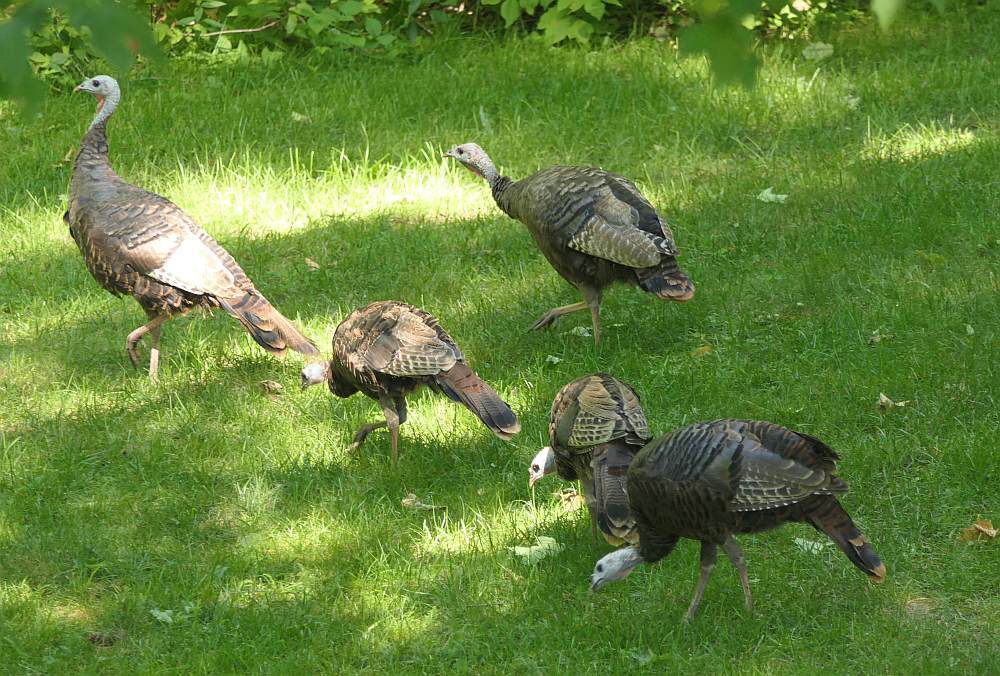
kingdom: Animalia
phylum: Chordata
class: Aves
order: Galliformes
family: Phasianidae
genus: Meleagris
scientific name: Meleagris gallopavo
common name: Wild turkey
